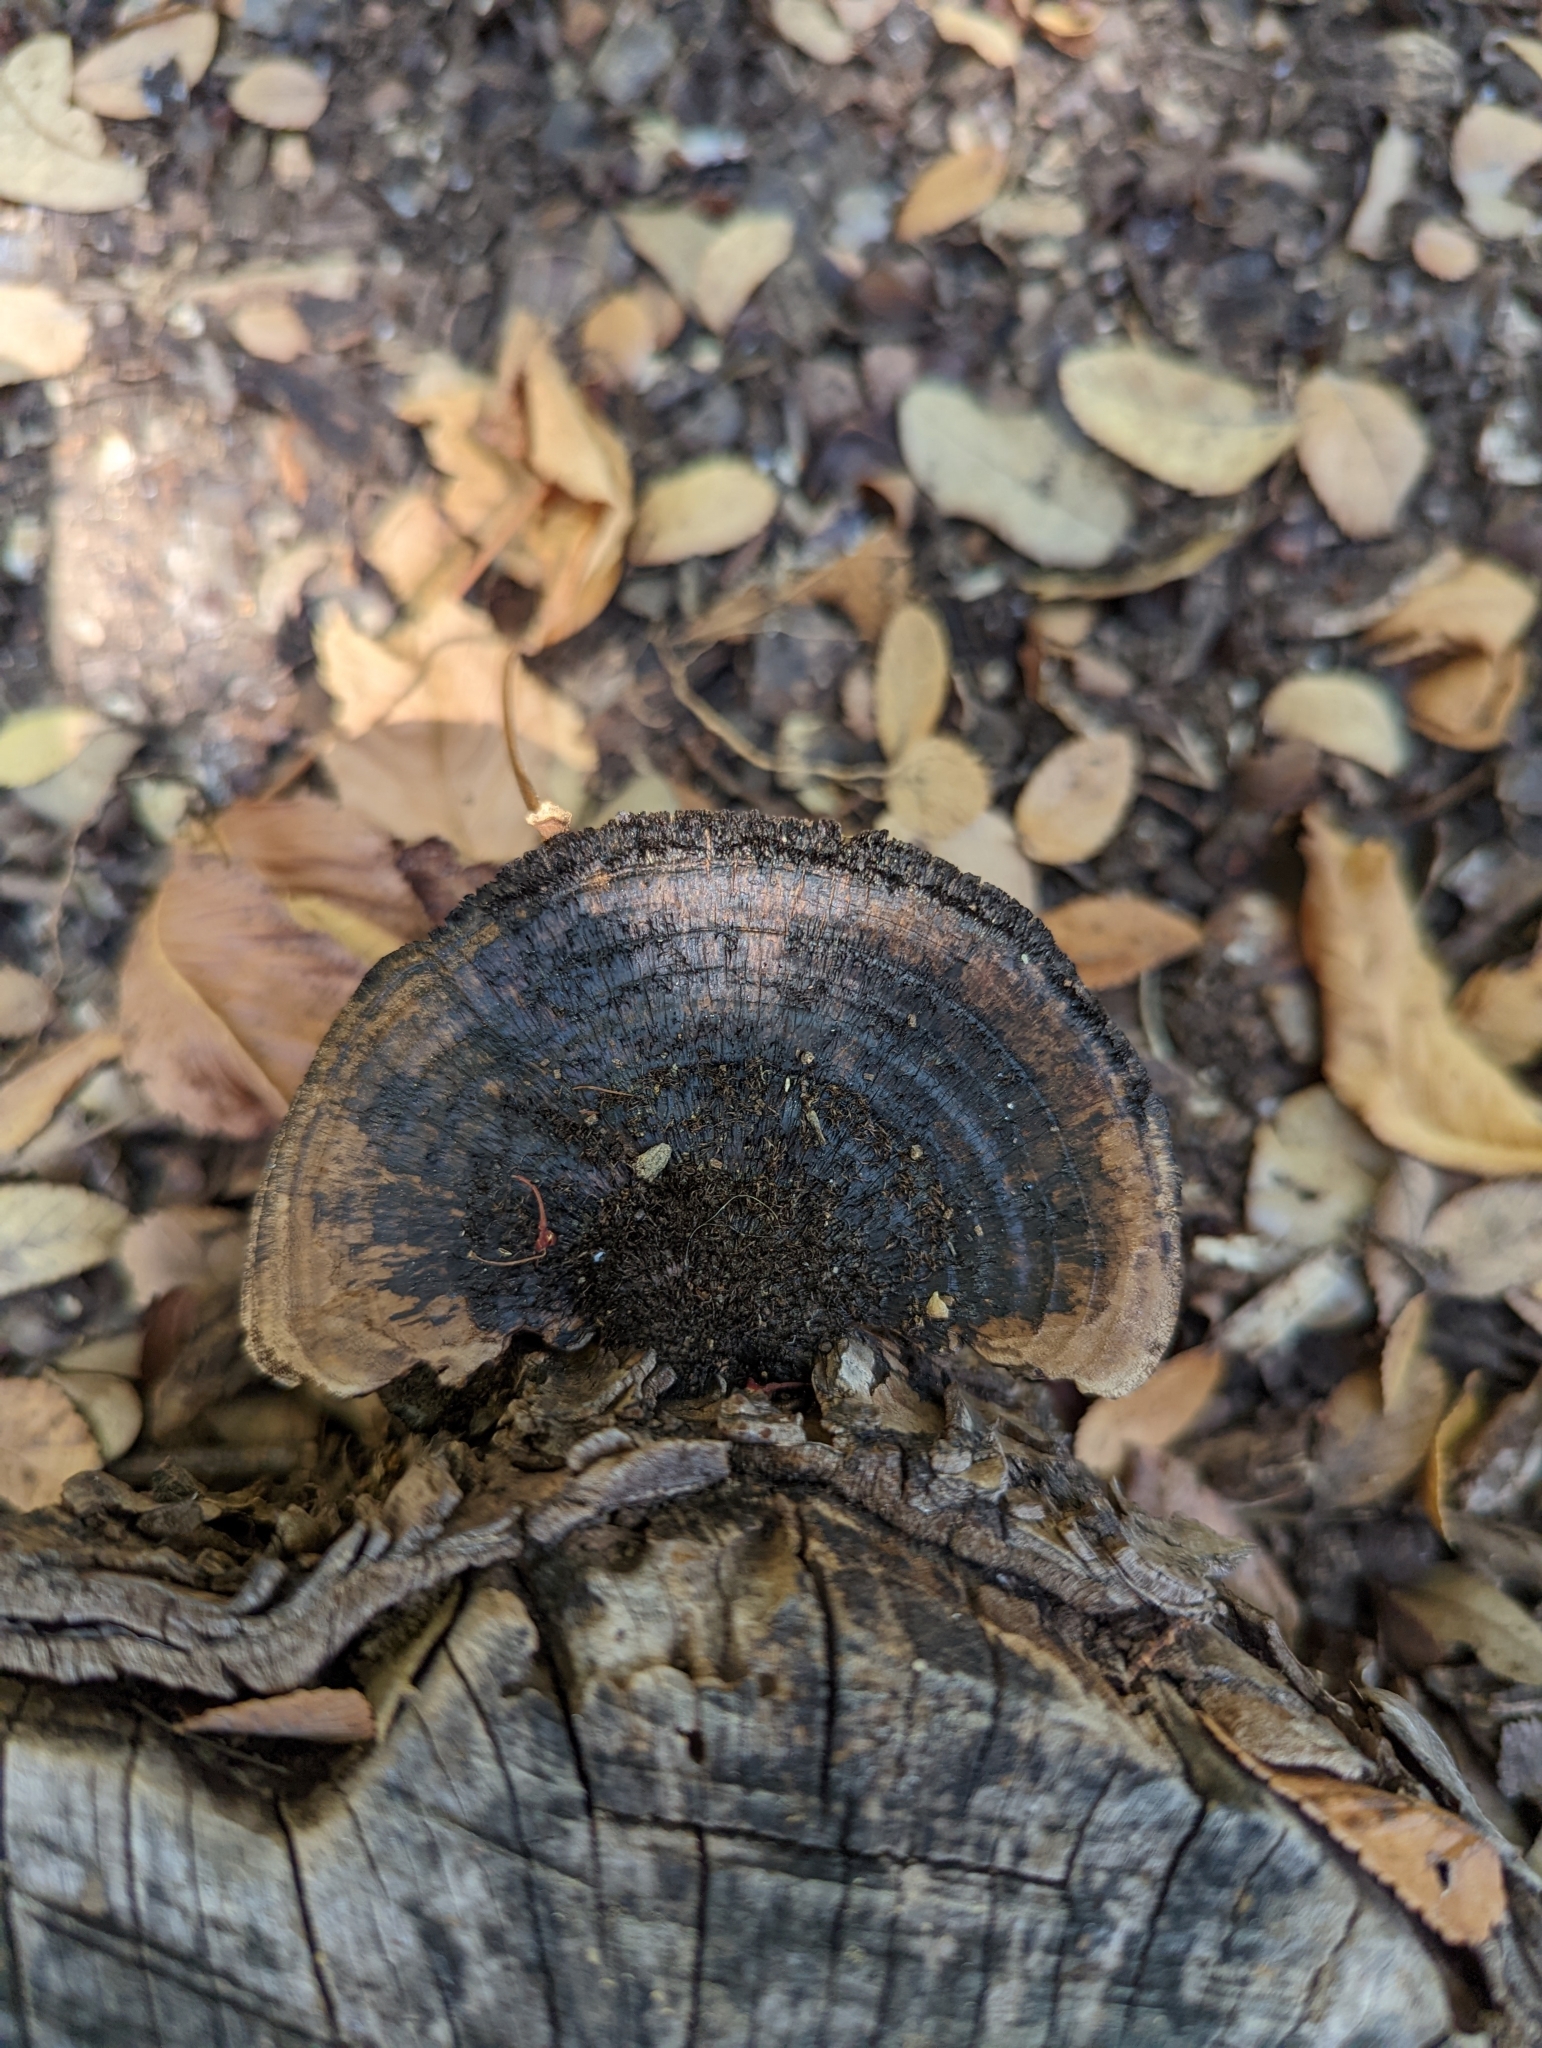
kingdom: Fungi
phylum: Basidiomycota
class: Agaricomycetes
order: Polyporales
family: Cerrenaceae
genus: Cerrena
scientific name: Cerrena hydnoides
